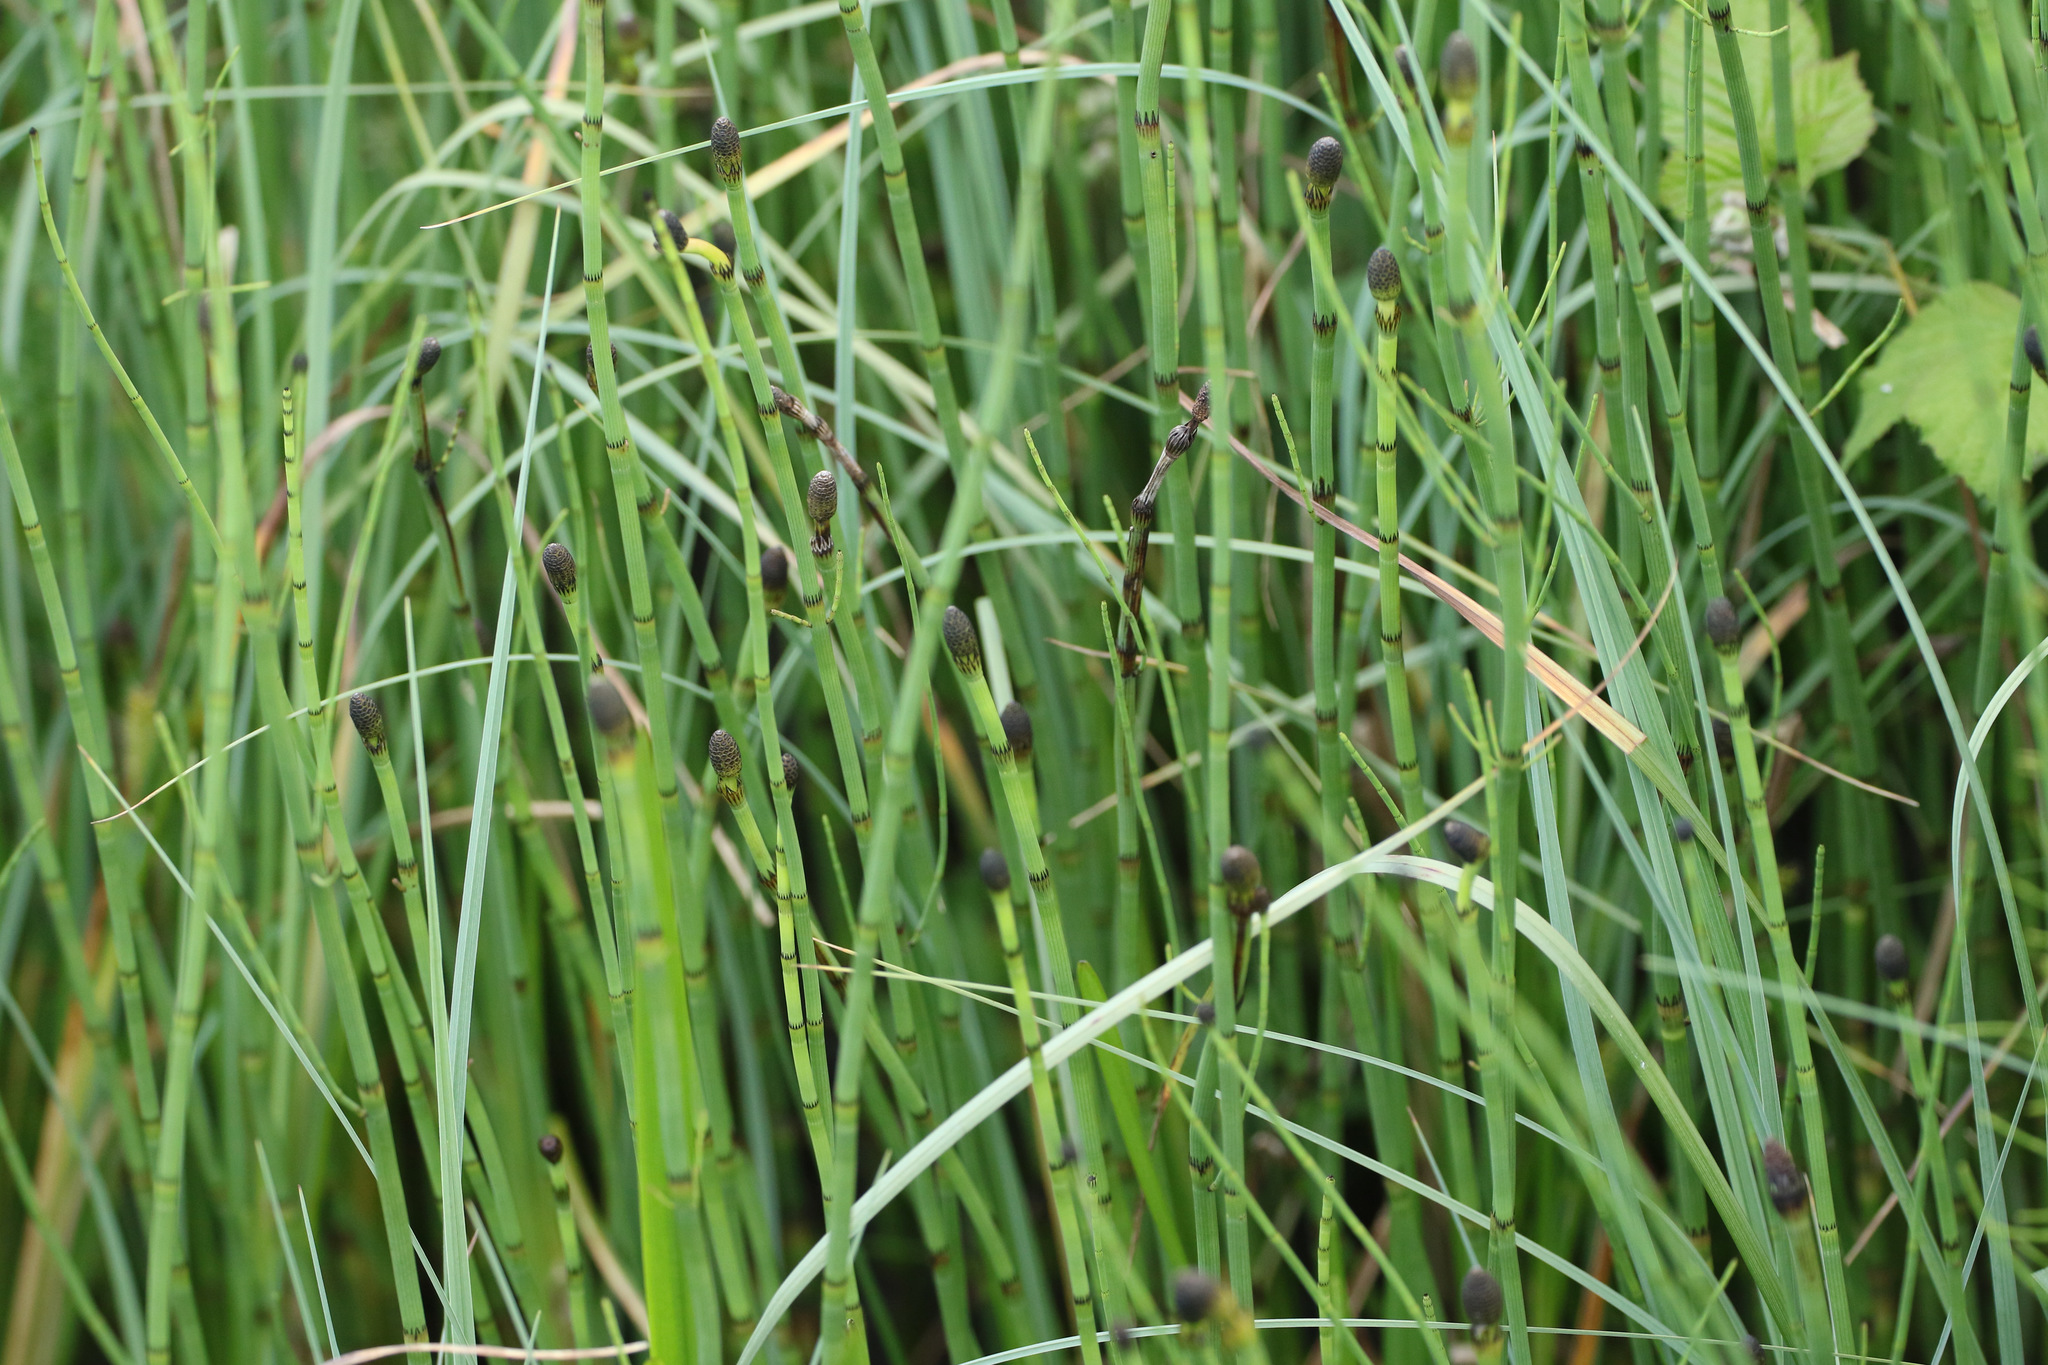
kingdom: Plantae
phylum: Tracheophyta
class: Polypodiopsida
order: Equisetales
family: Equisetaceae
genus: Equisetum
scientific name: Equisetum fluviatile
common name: Water horsetail
